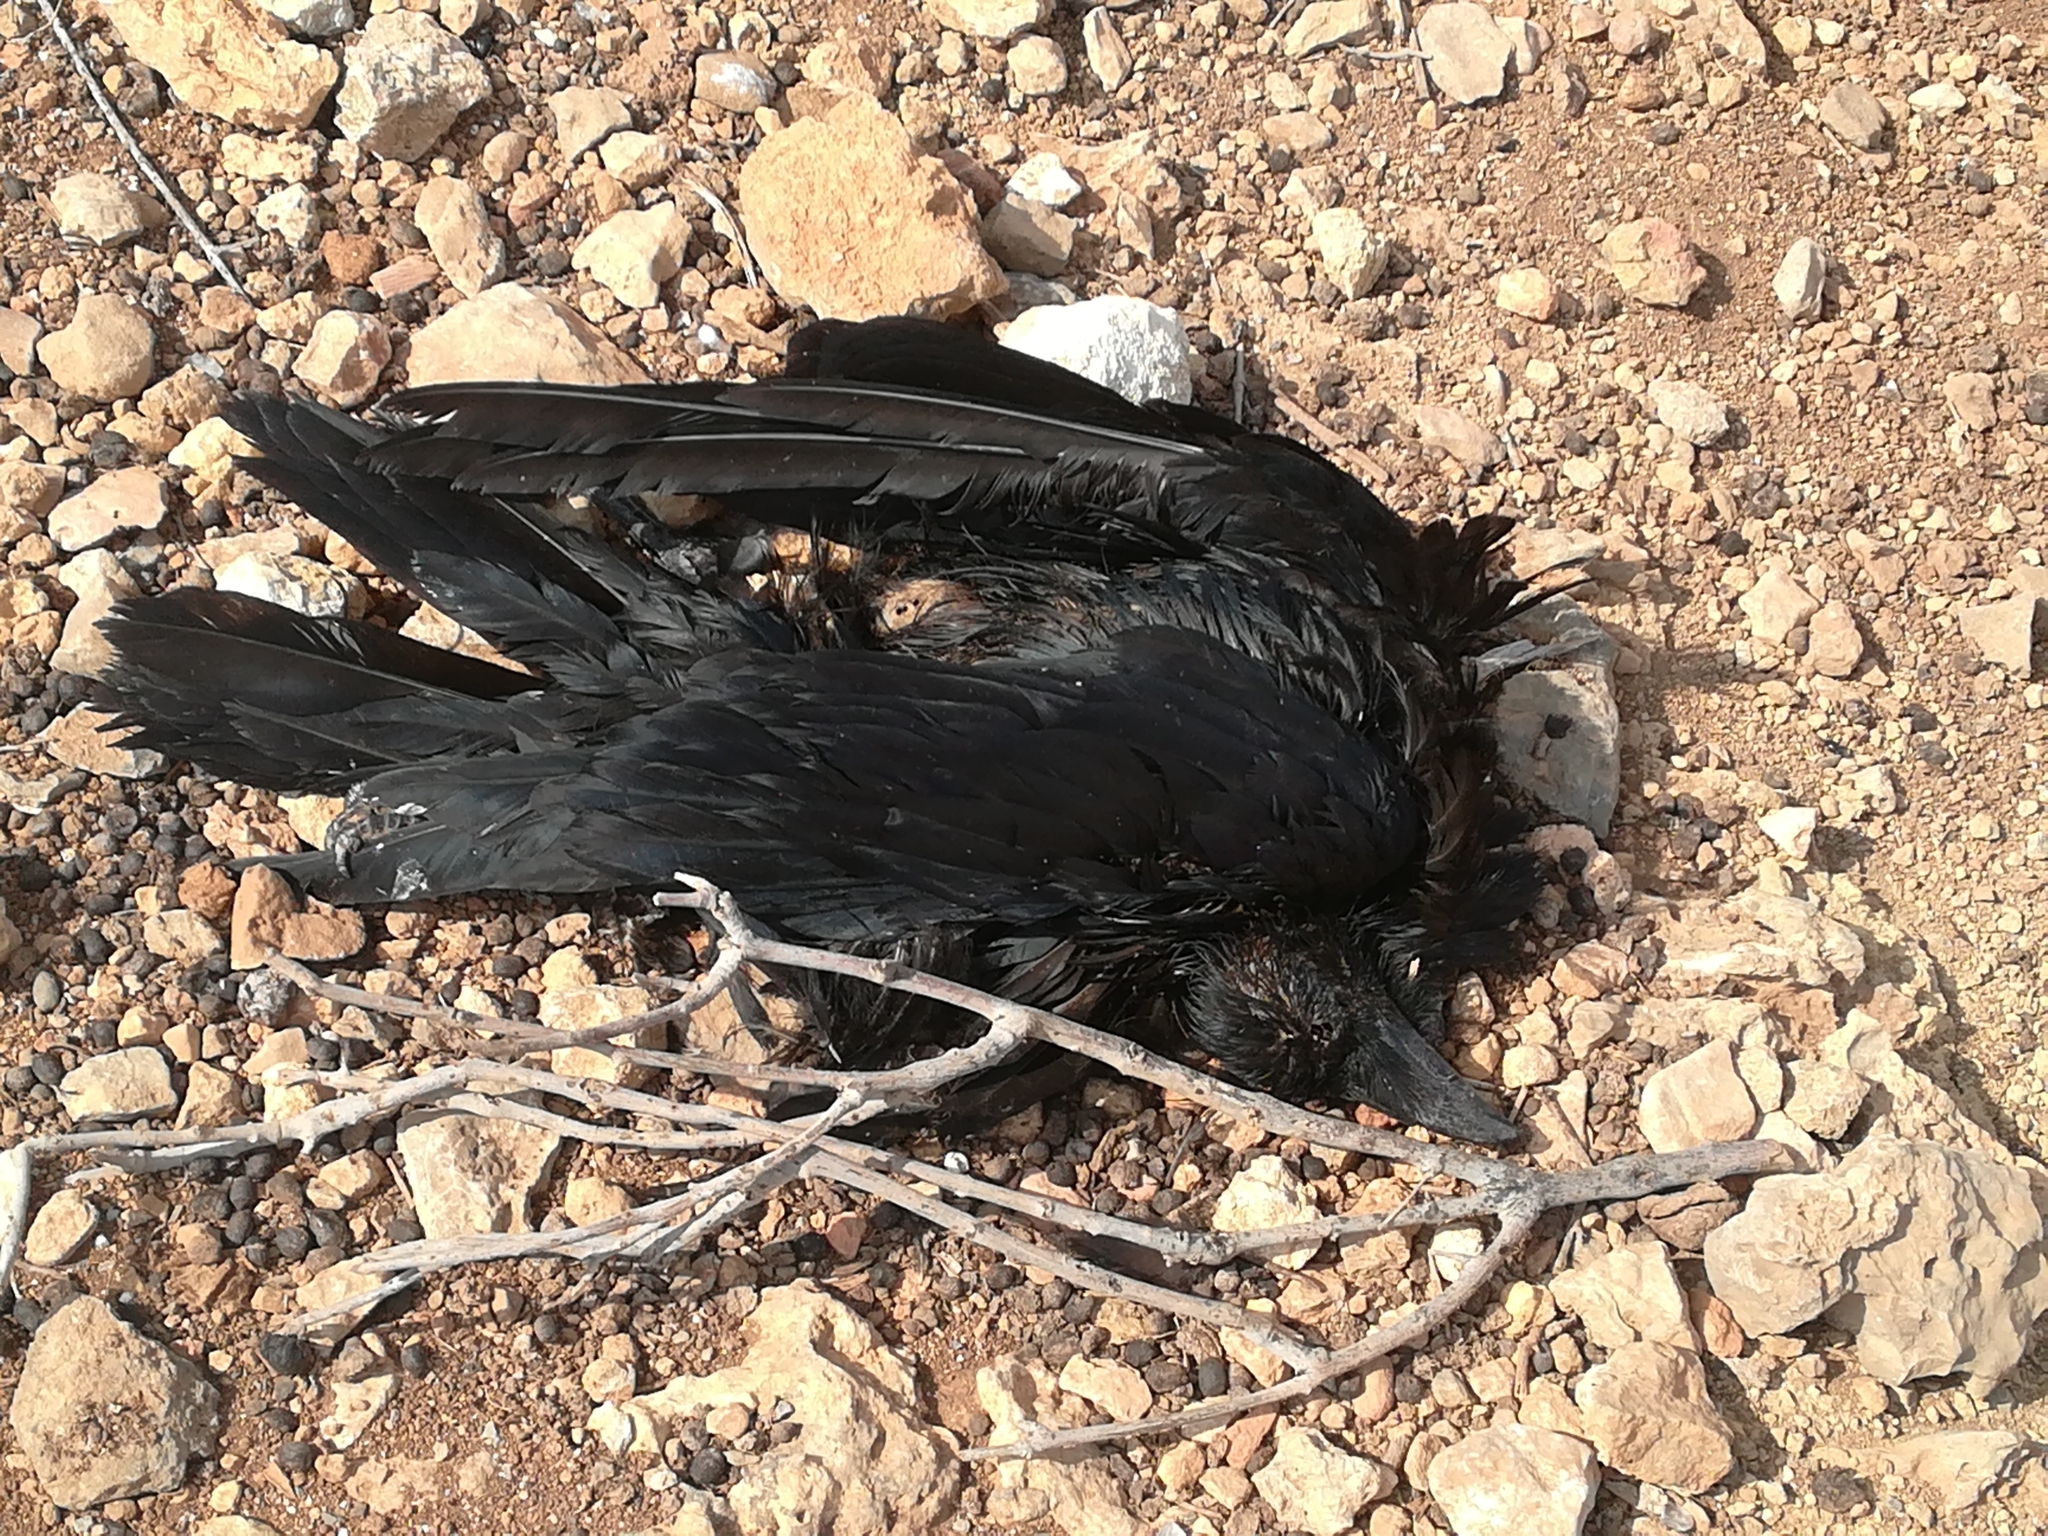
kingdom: Animalia
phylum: Chordata
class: Aves
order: Passeriformes
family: Corvidae
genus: Corvus
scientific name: Corvus corax
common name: Common raven
